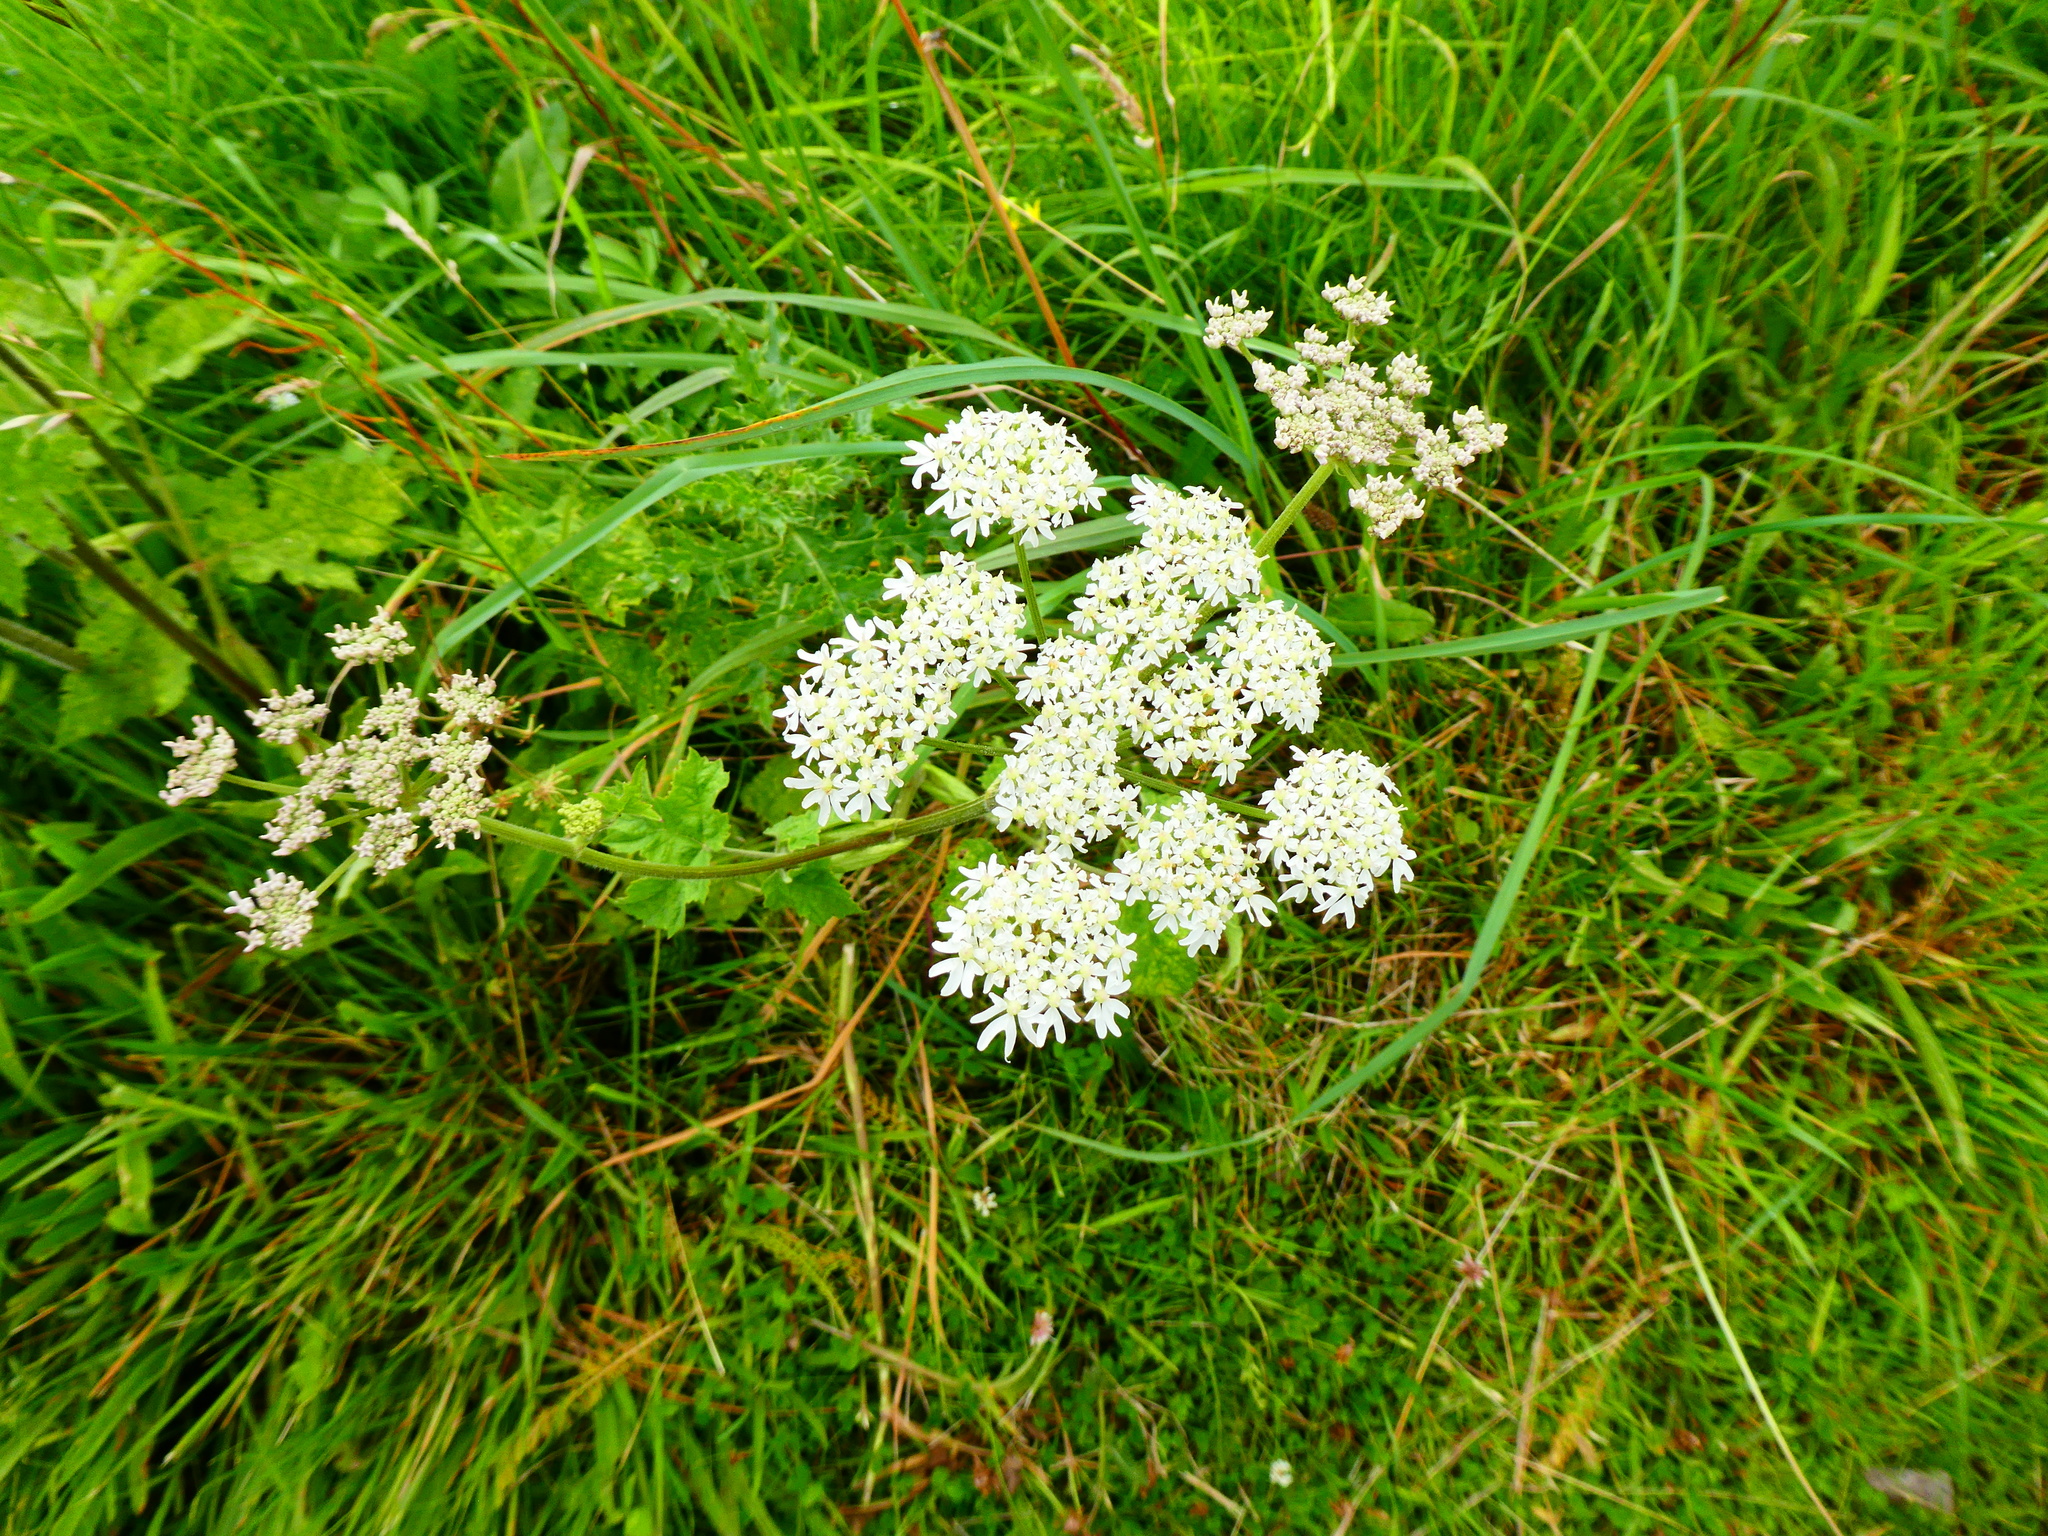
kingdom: Plantae
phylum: Tracheophyta
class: Magnoliopsida
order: Apiales
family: Apiaceae
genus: Heracleum
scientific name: Heracleum sphondylium
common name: Hogweed
